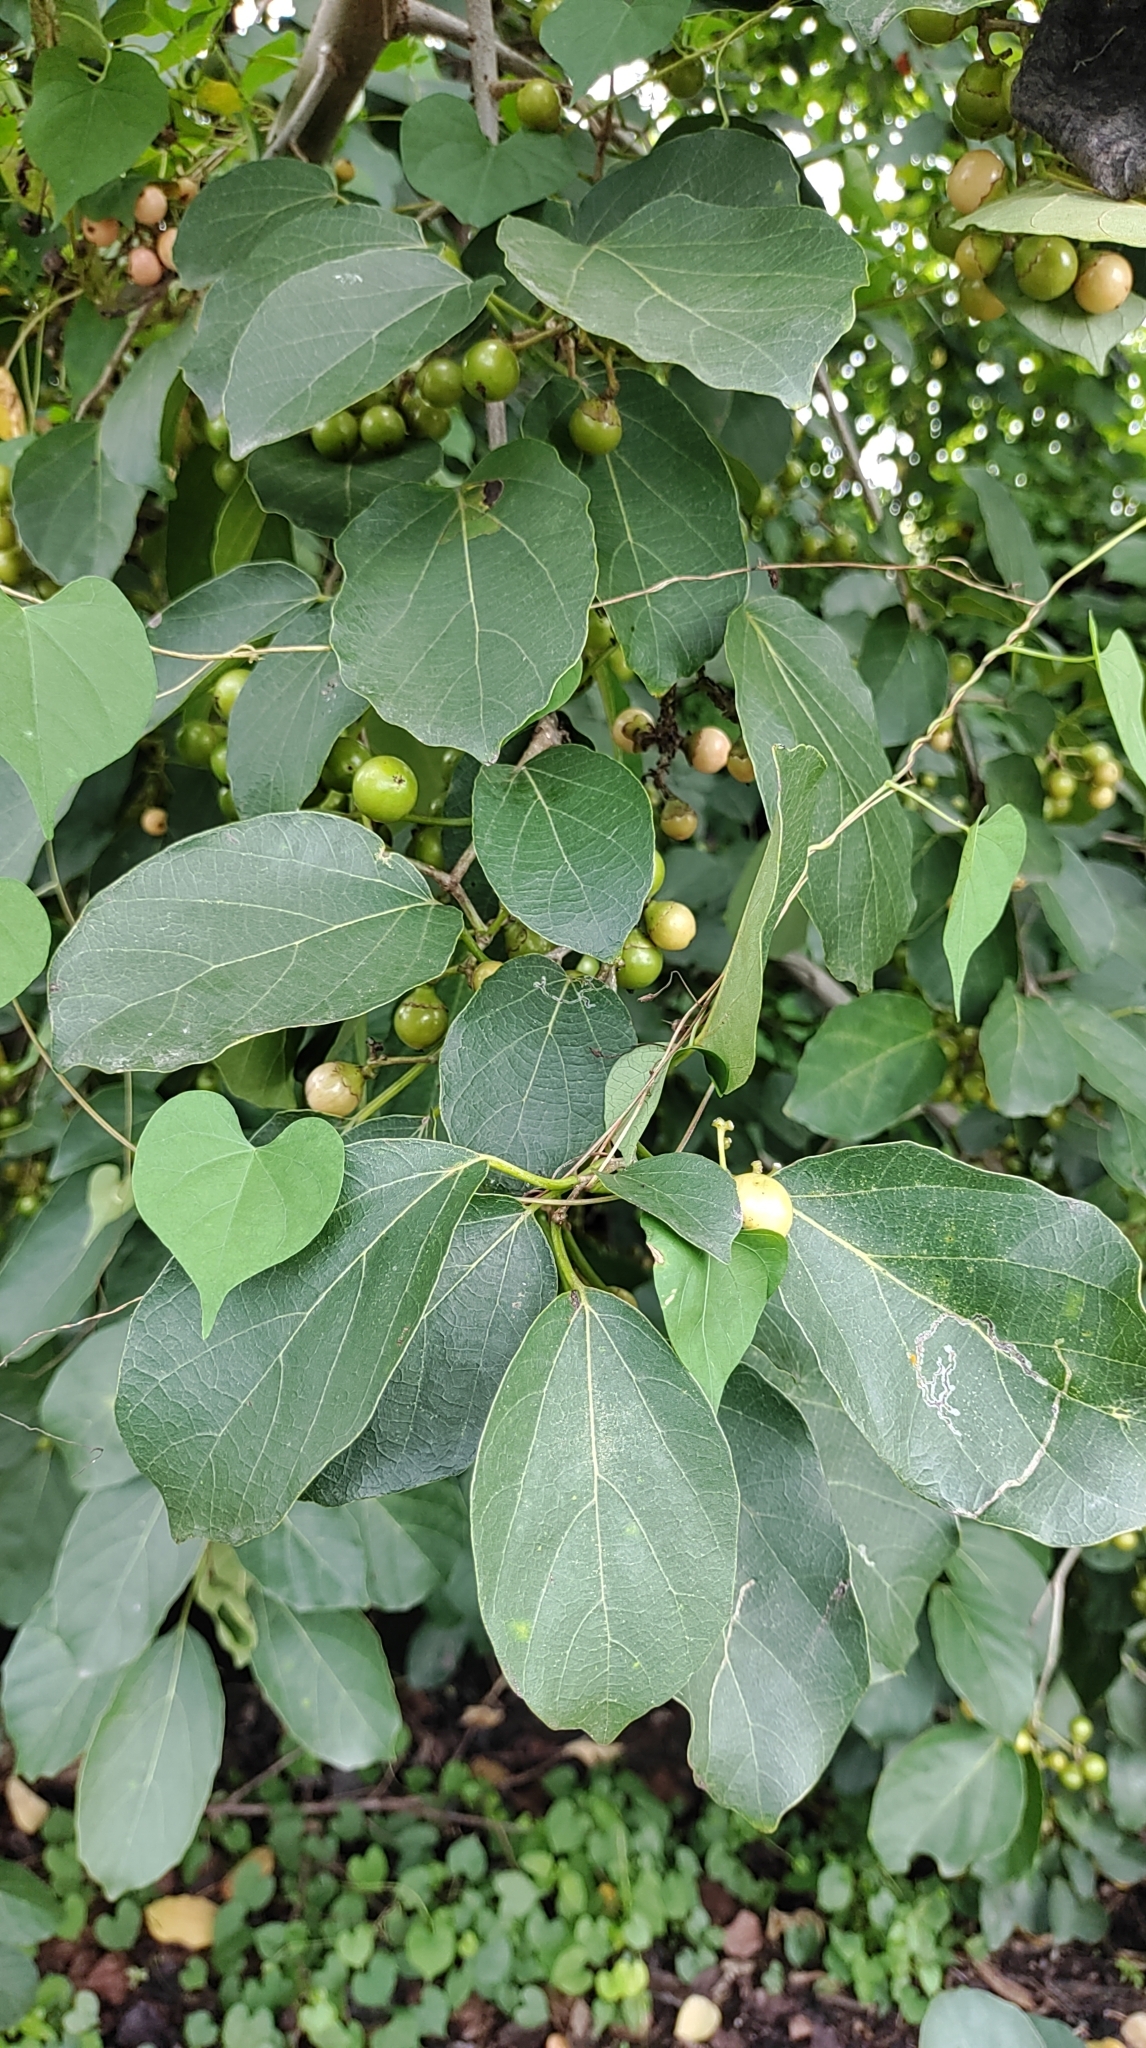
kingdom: Plantae
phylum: Tracheophyta
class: Magnoliopsida
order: Boraginales
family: Cordiaceae
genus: Cordia
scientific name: Cordia dichotoma
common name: Fragrant manjack
